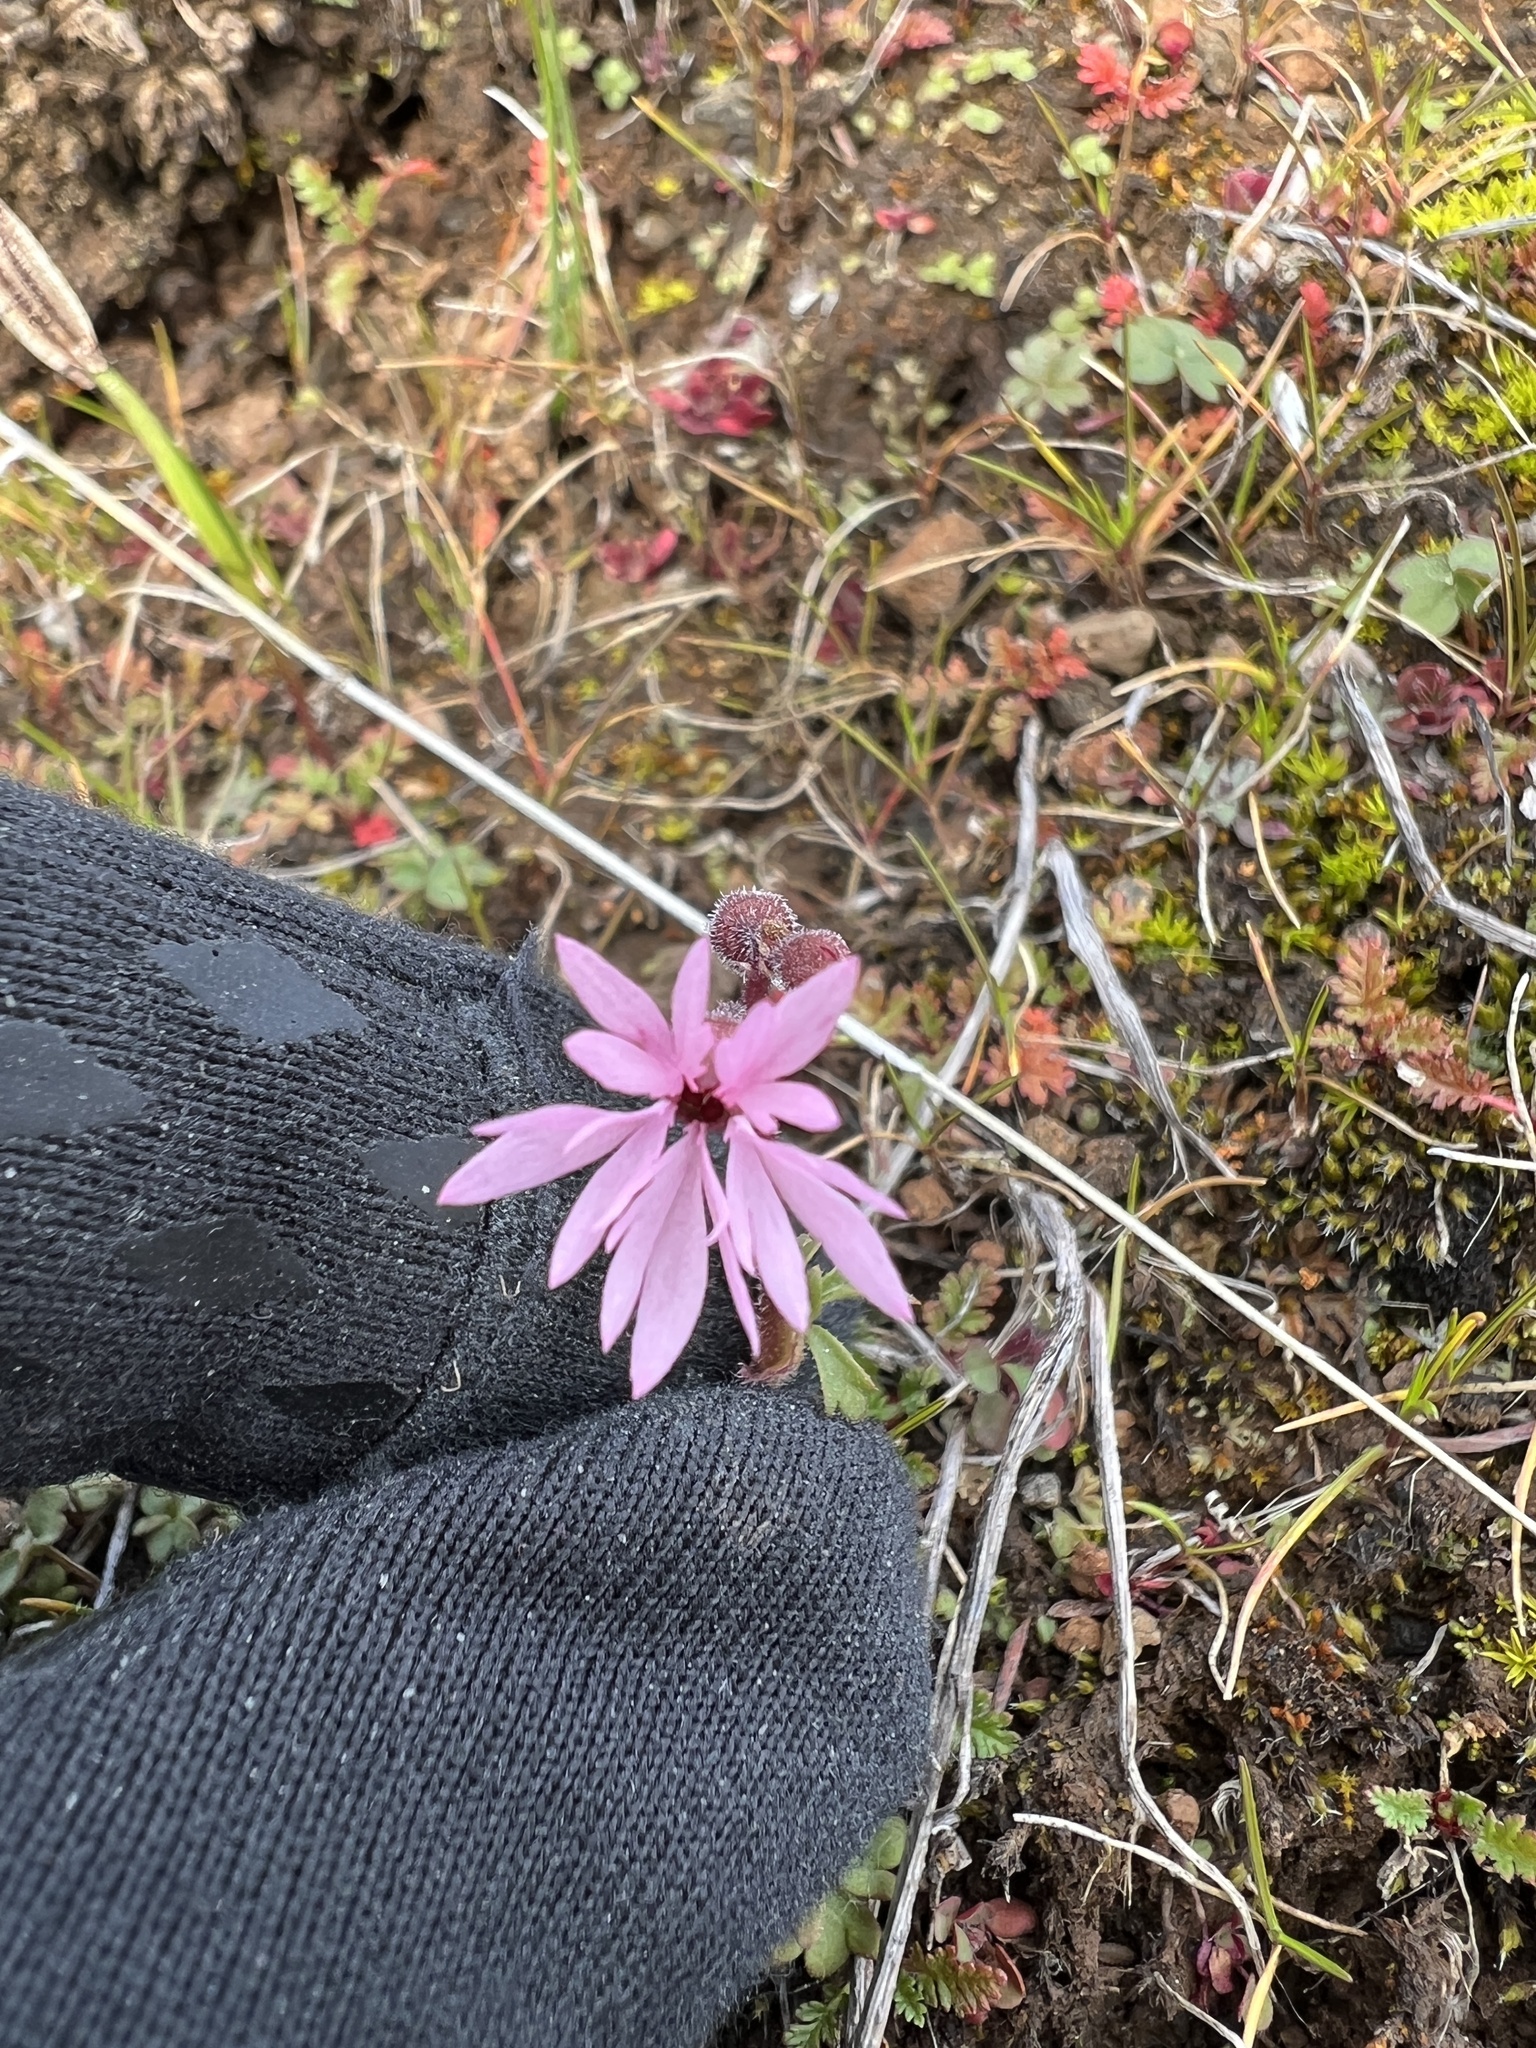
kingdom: Plantae
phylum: Tracheophyta
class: Magnoliopsida
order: Saxifragales
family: Saxifragaceae
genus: Lithophragma
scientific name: Lithophragma glabrum
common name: Bulbous prairie-star
